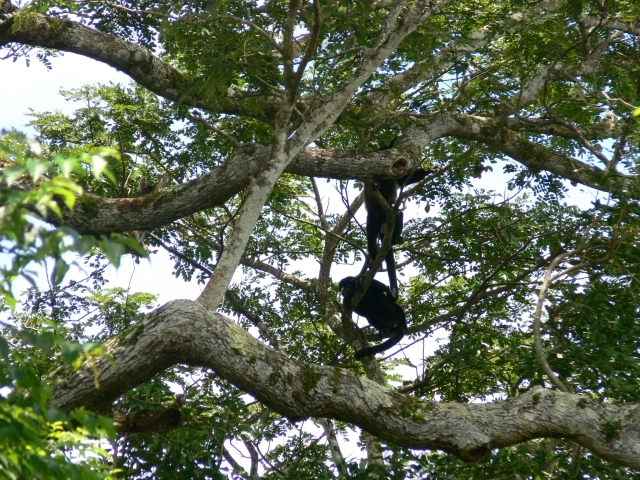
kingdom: Animalia
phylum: Chordata
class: Mammalia
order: Primates
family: Atelidae
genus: Alouatta
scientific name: Alouatta palliata
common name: Mantled howler
